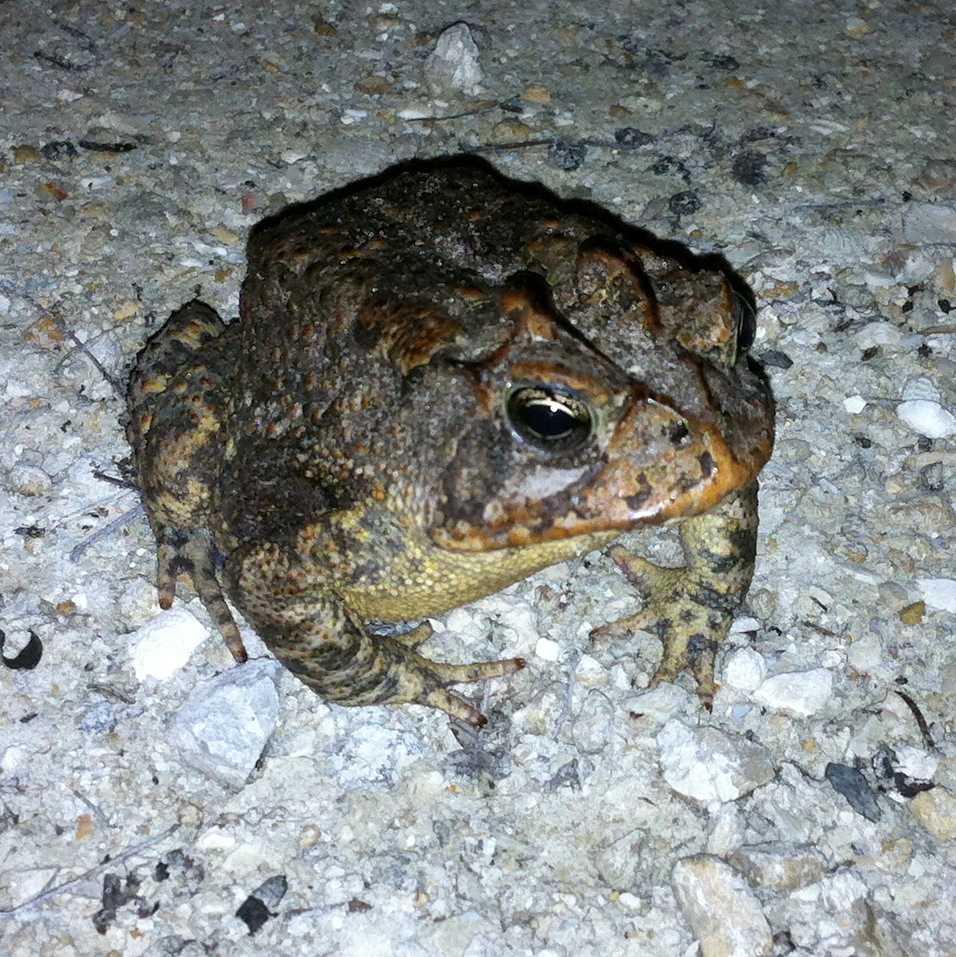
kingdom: Animalia
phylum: Chordata
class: Amphibia
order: Anura
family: Bufonidae
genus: Anaxyrus
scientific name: Anaxyrus terrestris
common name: Southern toad
